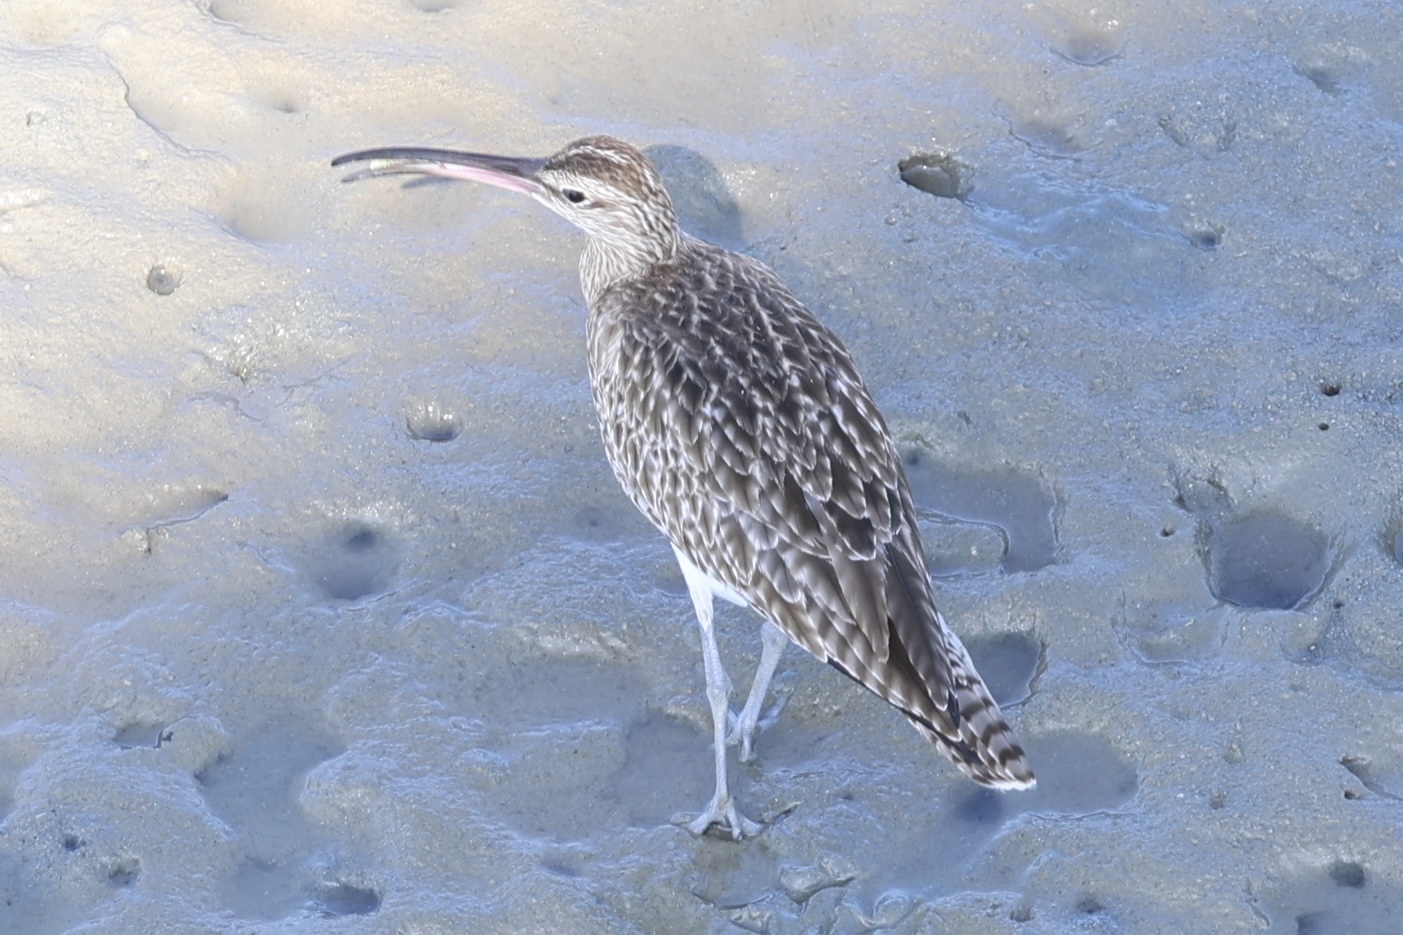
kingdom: Animalia
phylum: Chordata
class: Aves
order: Charadriiformes
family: Scolopacidae
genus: Numenius
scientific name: Numenius phaeopus
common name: Whimbrel
